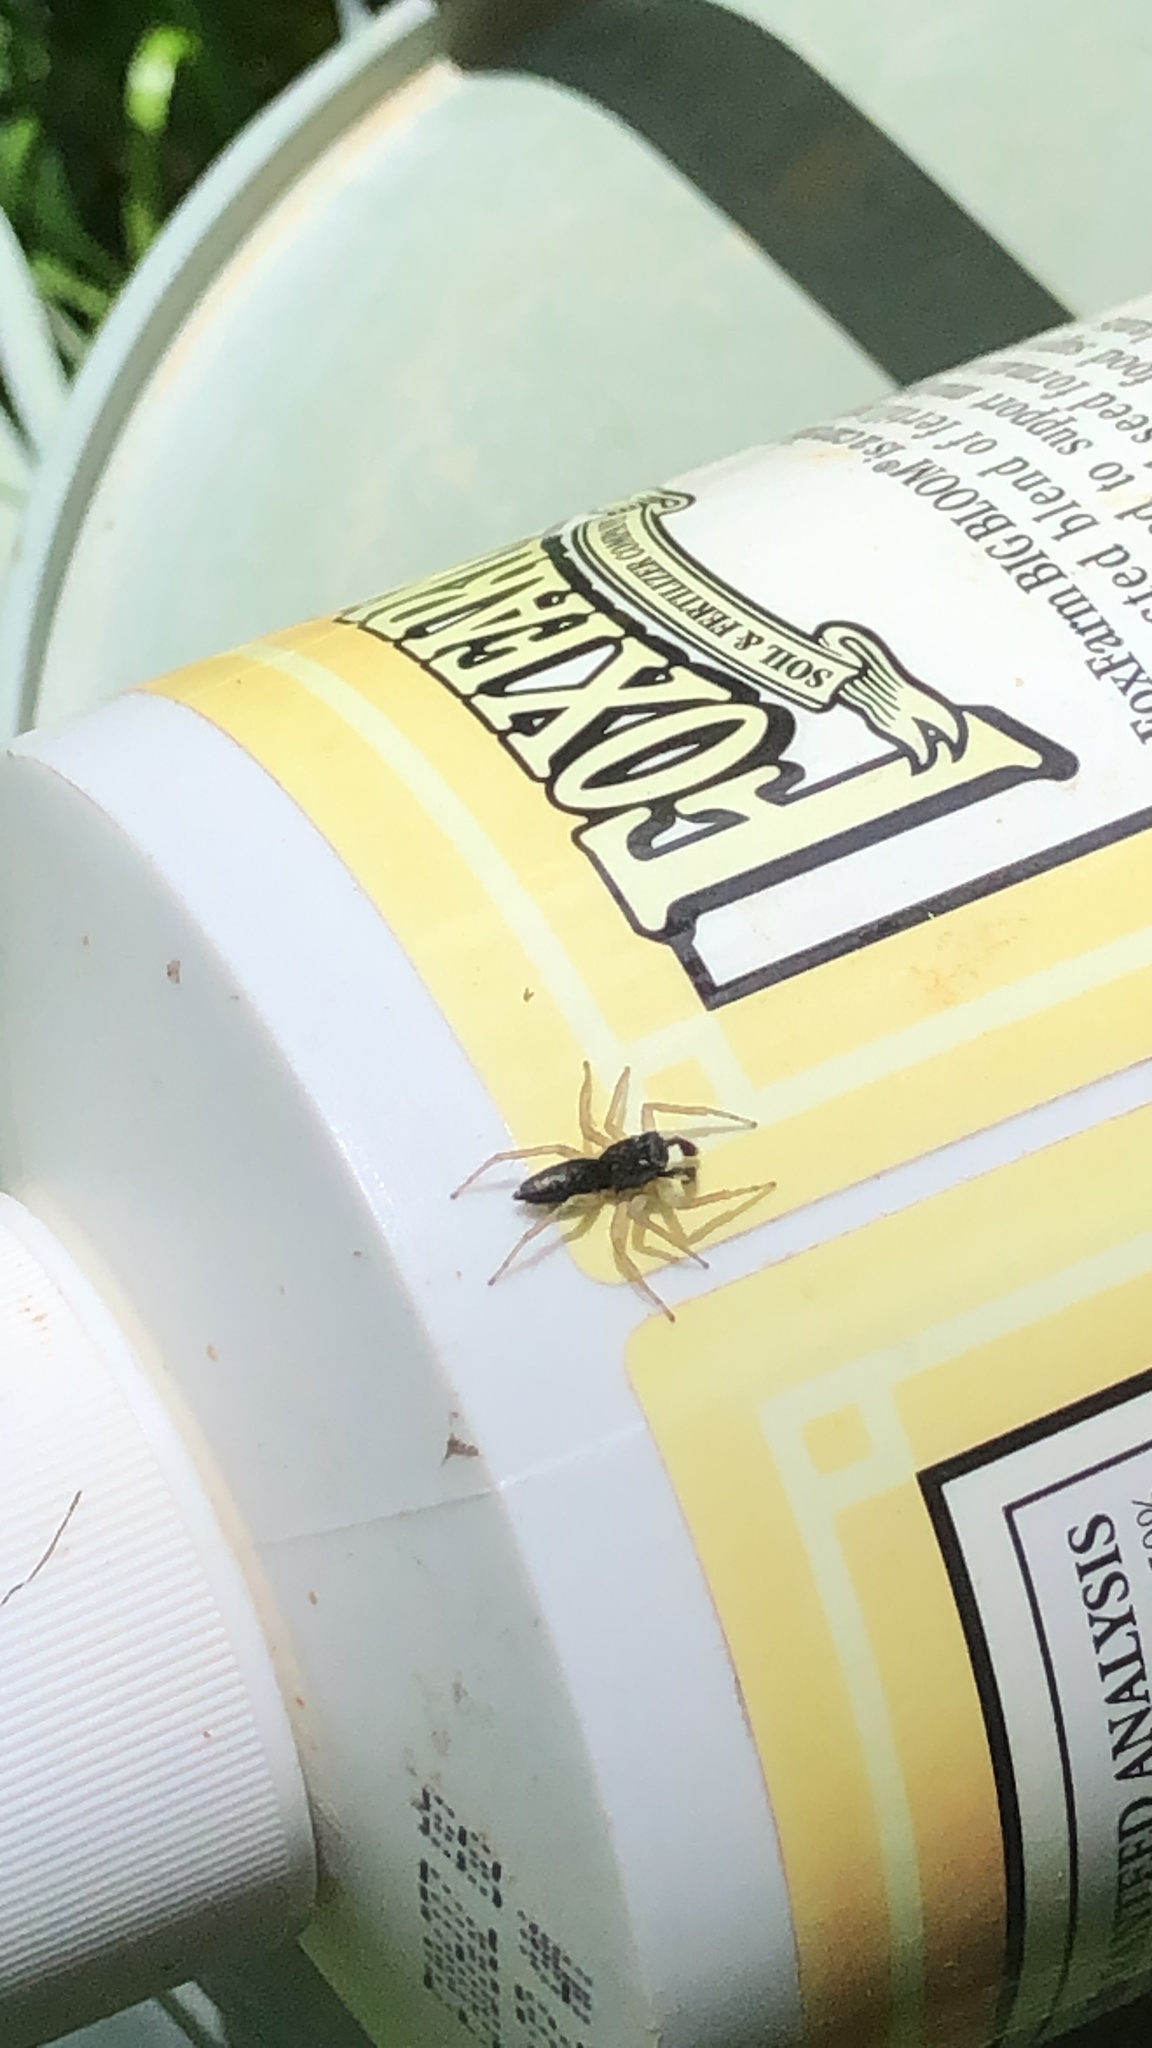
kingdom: Animalia
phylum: Arthropoda
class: Arachnida
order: Araneae
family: Salticidae
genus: Maevia
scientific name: Maevia inclemens
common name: Dimorphic jumper
